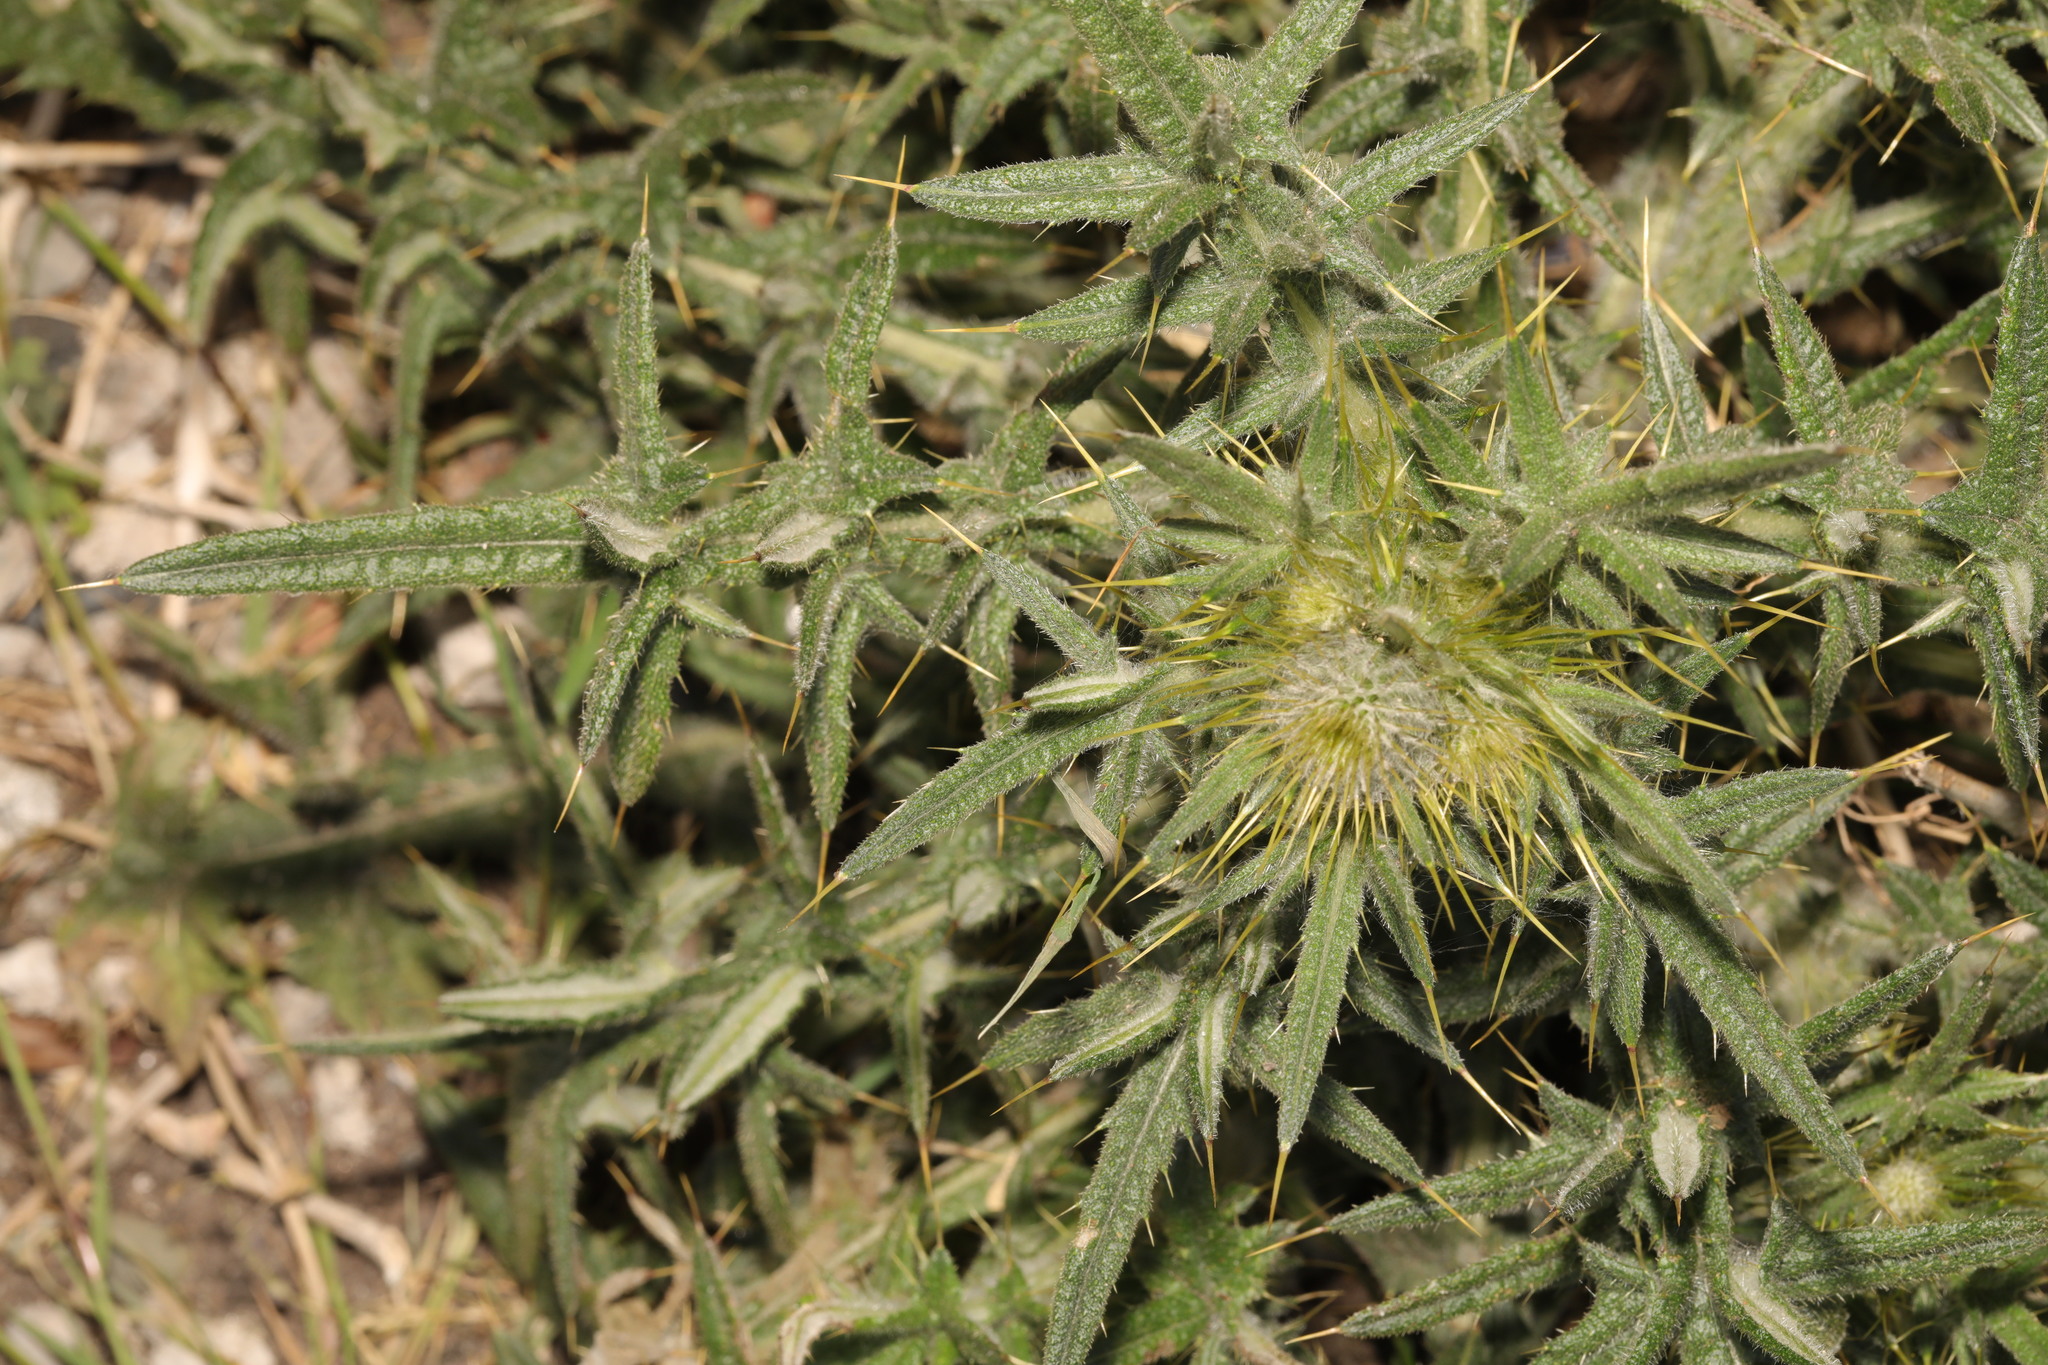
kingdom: Plantae
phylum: Tracheophyta
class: Magnoliopsida
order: Asterales
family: Asteraceae
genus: Cirsium
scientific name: Cirsium vulgare
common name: Bull thistle
